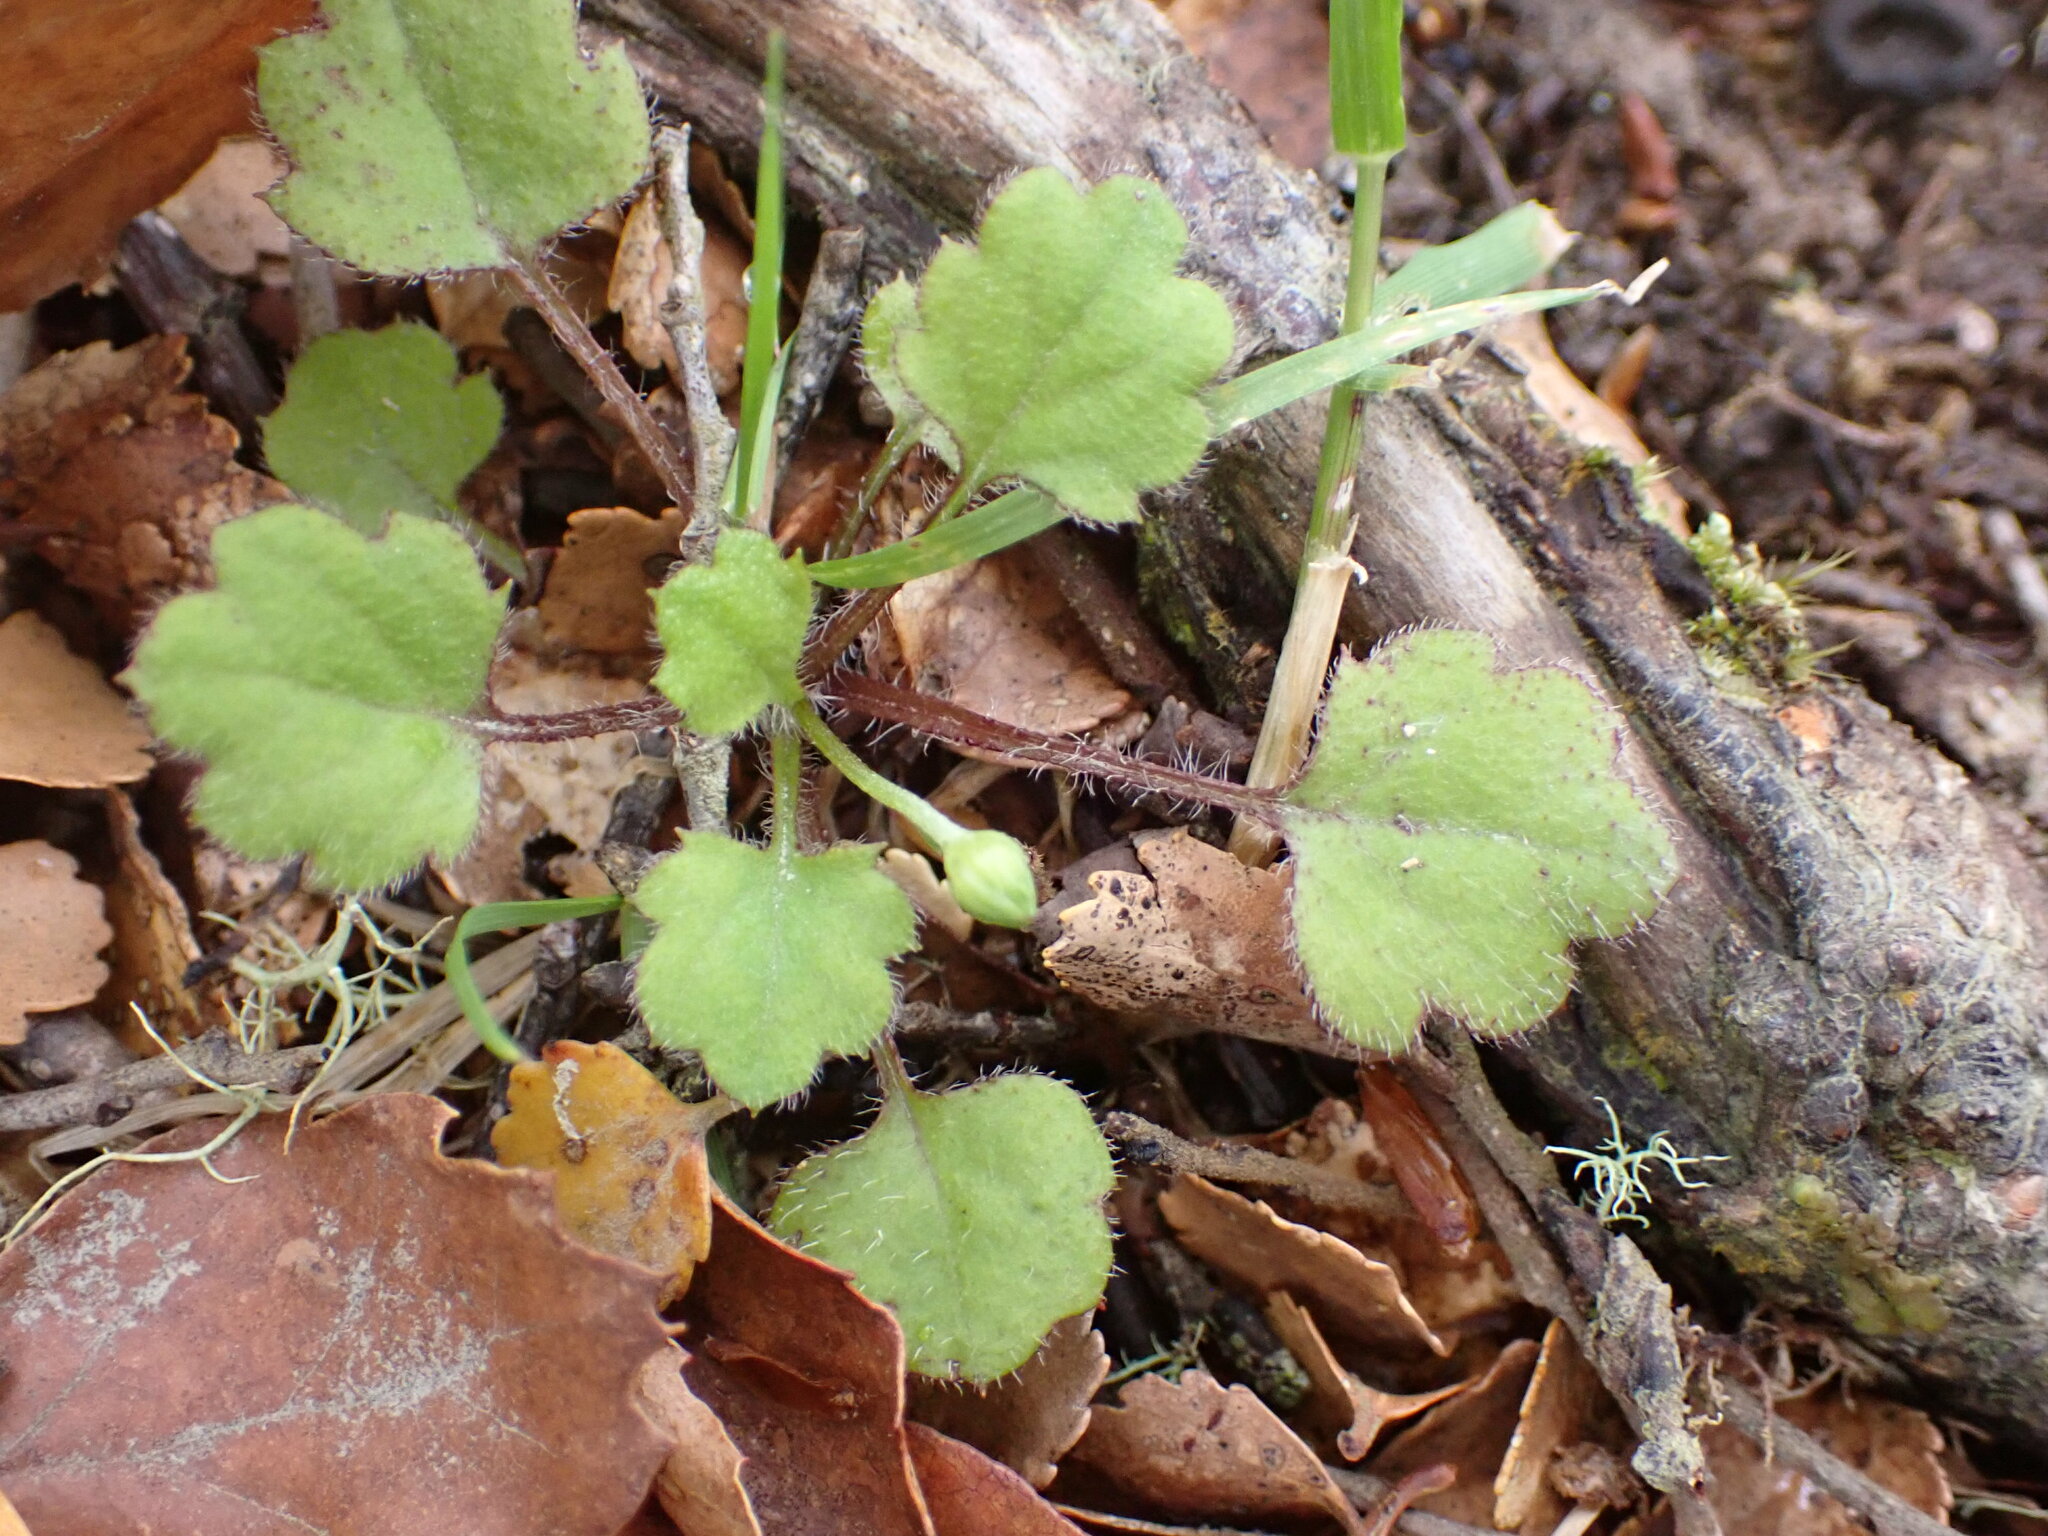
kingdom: Plantae
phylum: Tracheophyta
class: Magnoliopsida
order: Ranunculales
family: Ranunculaceae
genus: Ranunculus
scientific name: Ranunculus reflexus
